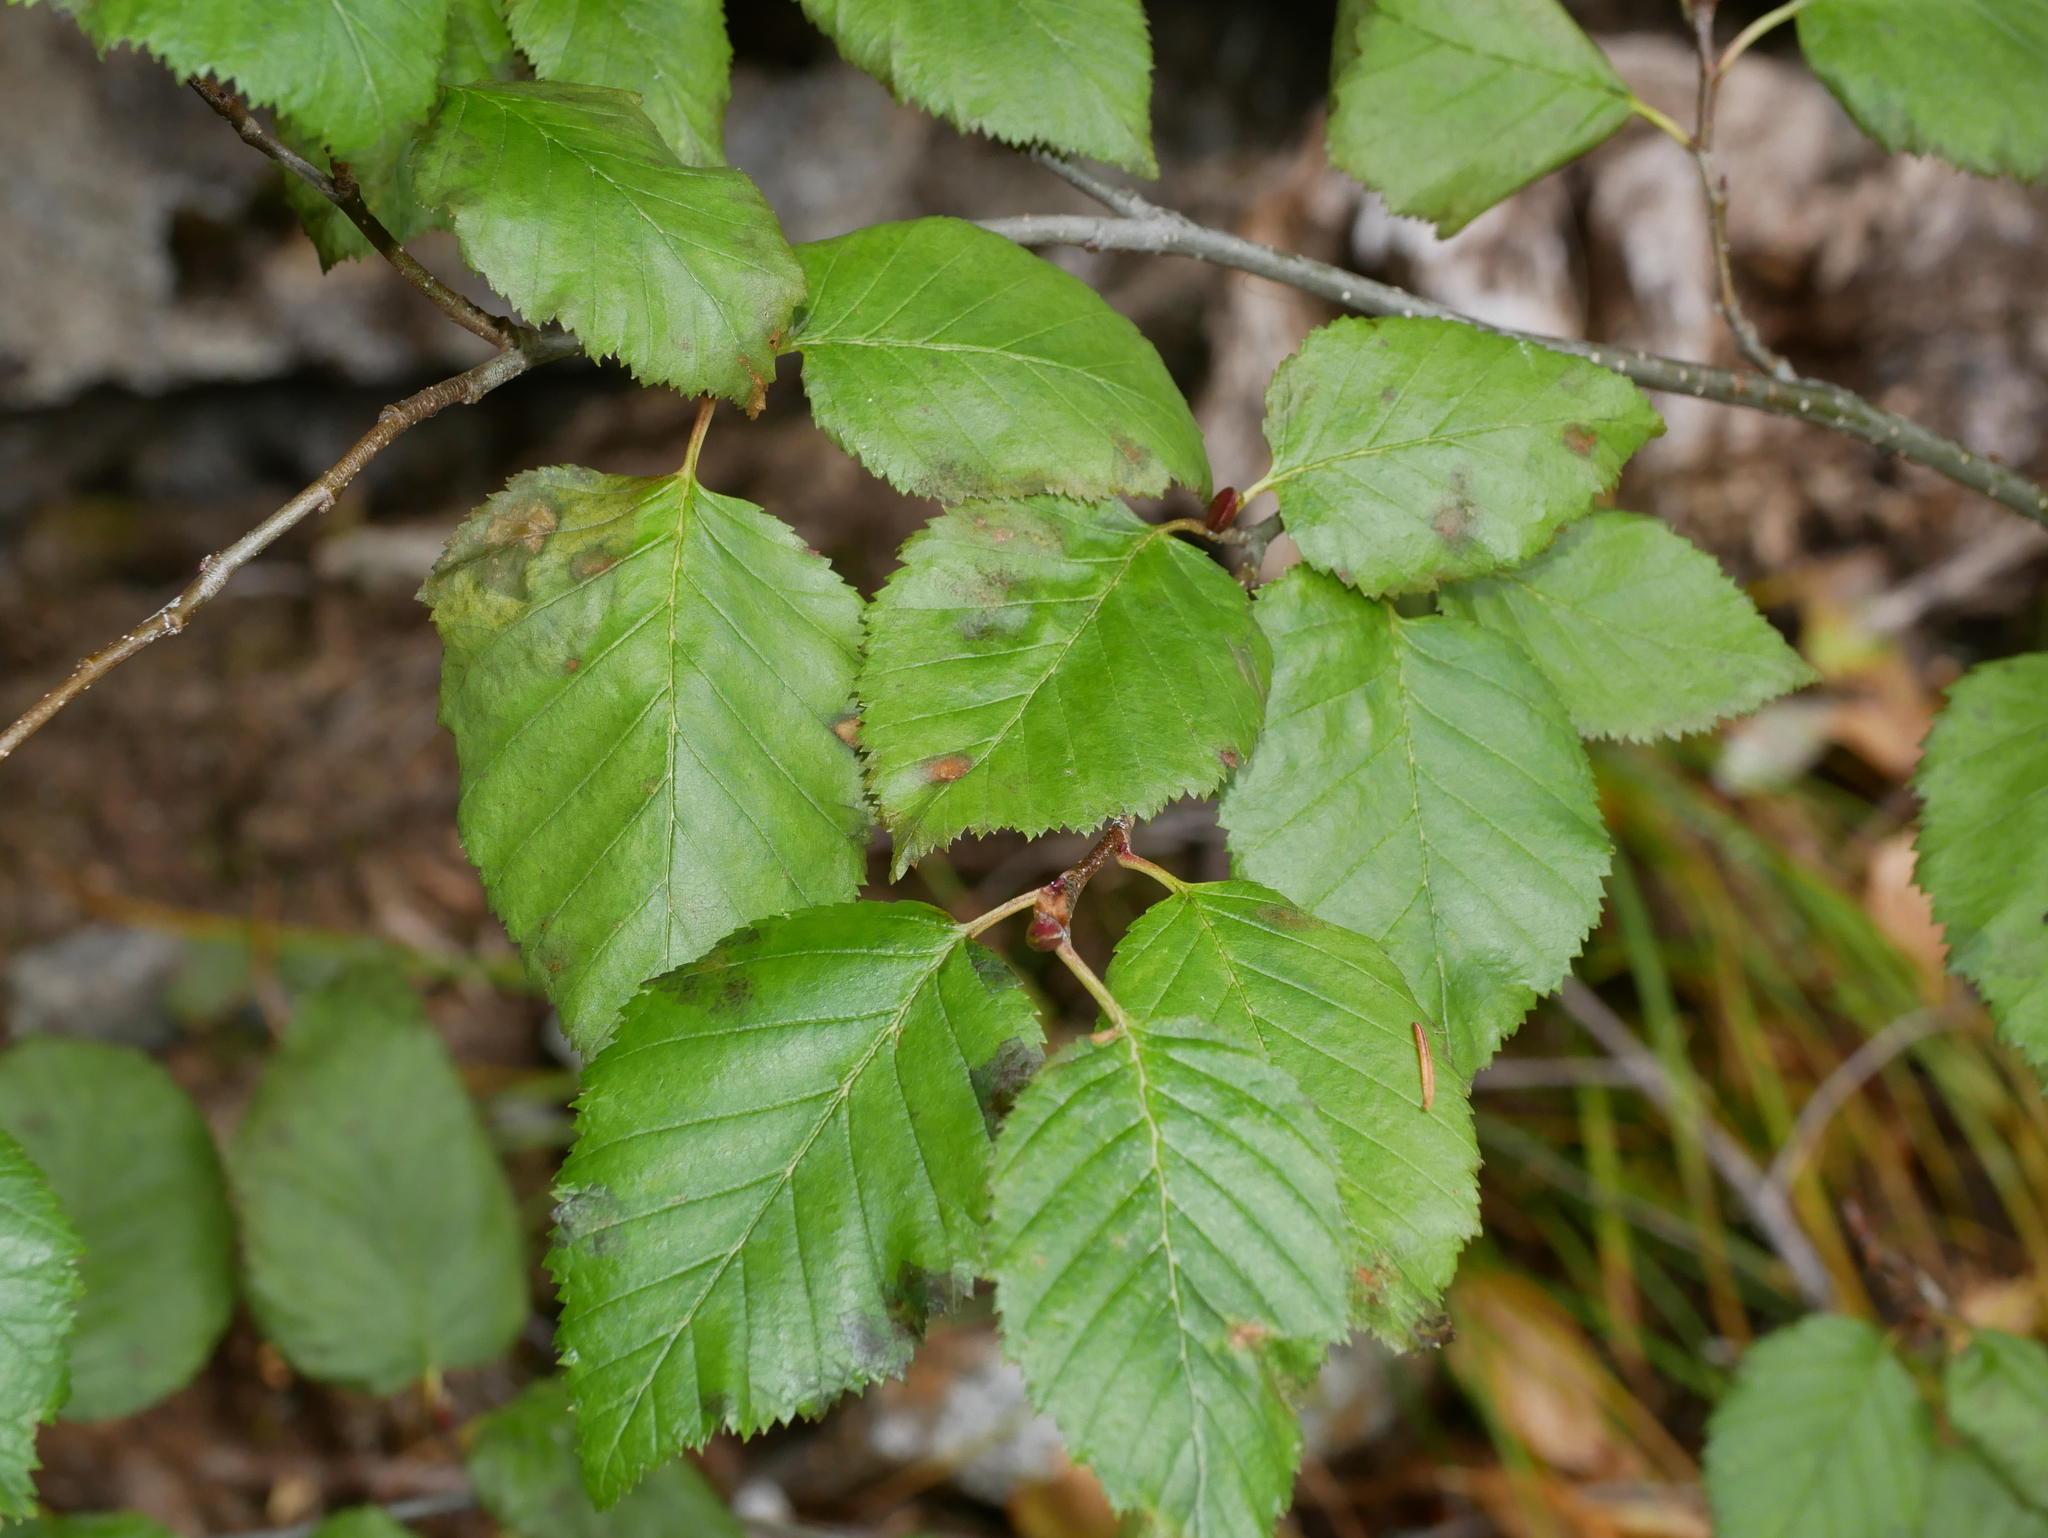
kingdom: Plantae
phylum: Tracheophyta
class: Magnoliopsida
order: Fagales
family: Betulaceae
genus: Alnus
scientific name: Alnus alnobetula
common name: Green alder
